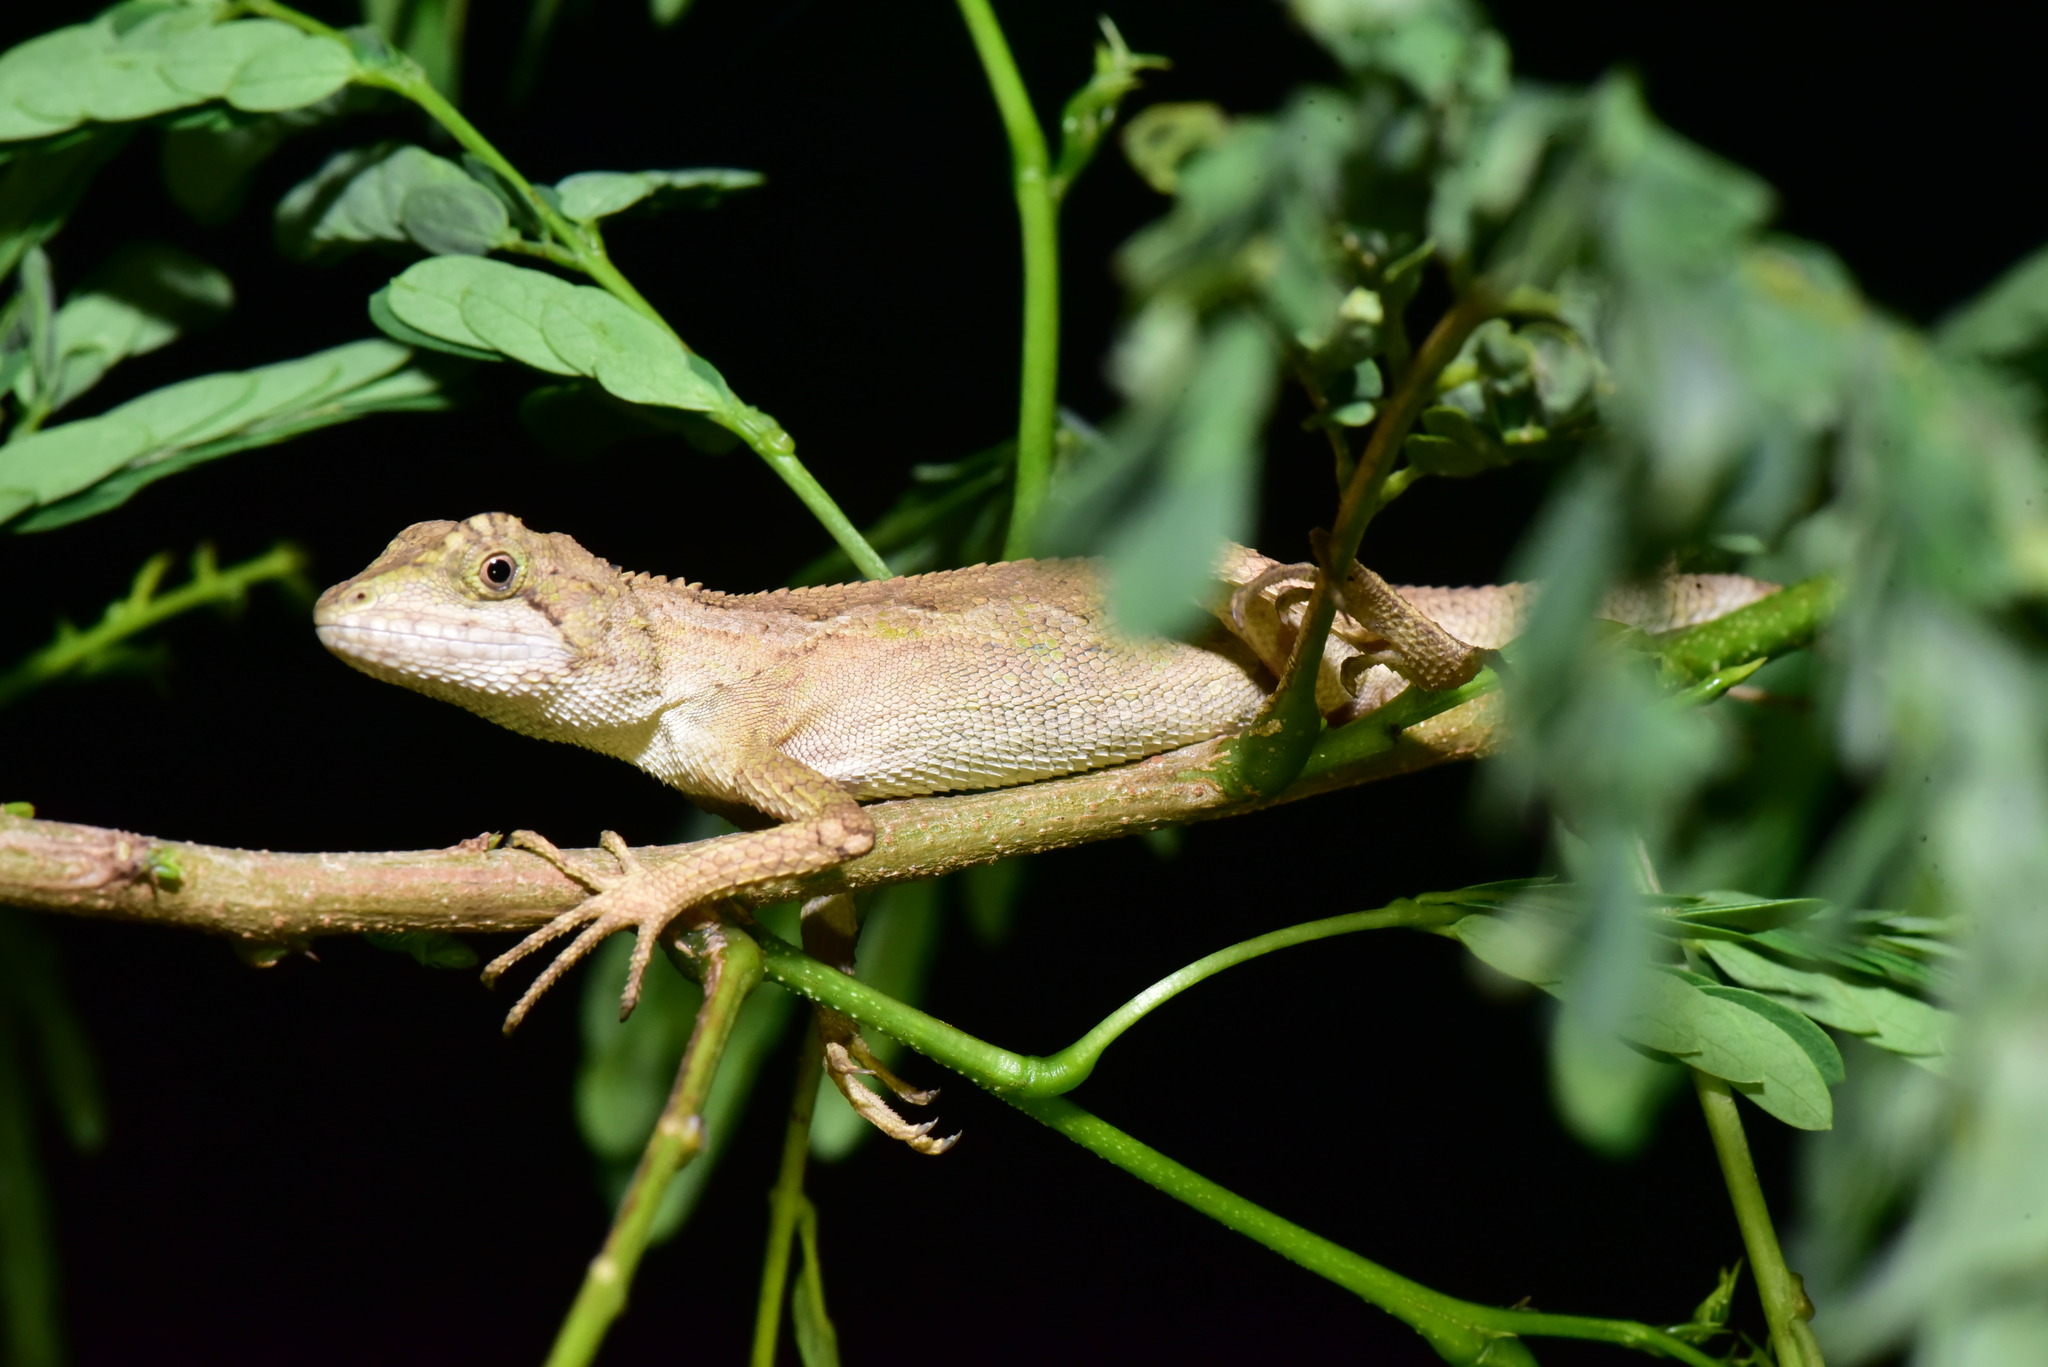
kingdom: Animalia
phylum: Chordata
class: Squamata
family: Agamidae
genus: Diploderma
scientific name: Diploderma swinhonis
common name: Taiwan japalure
